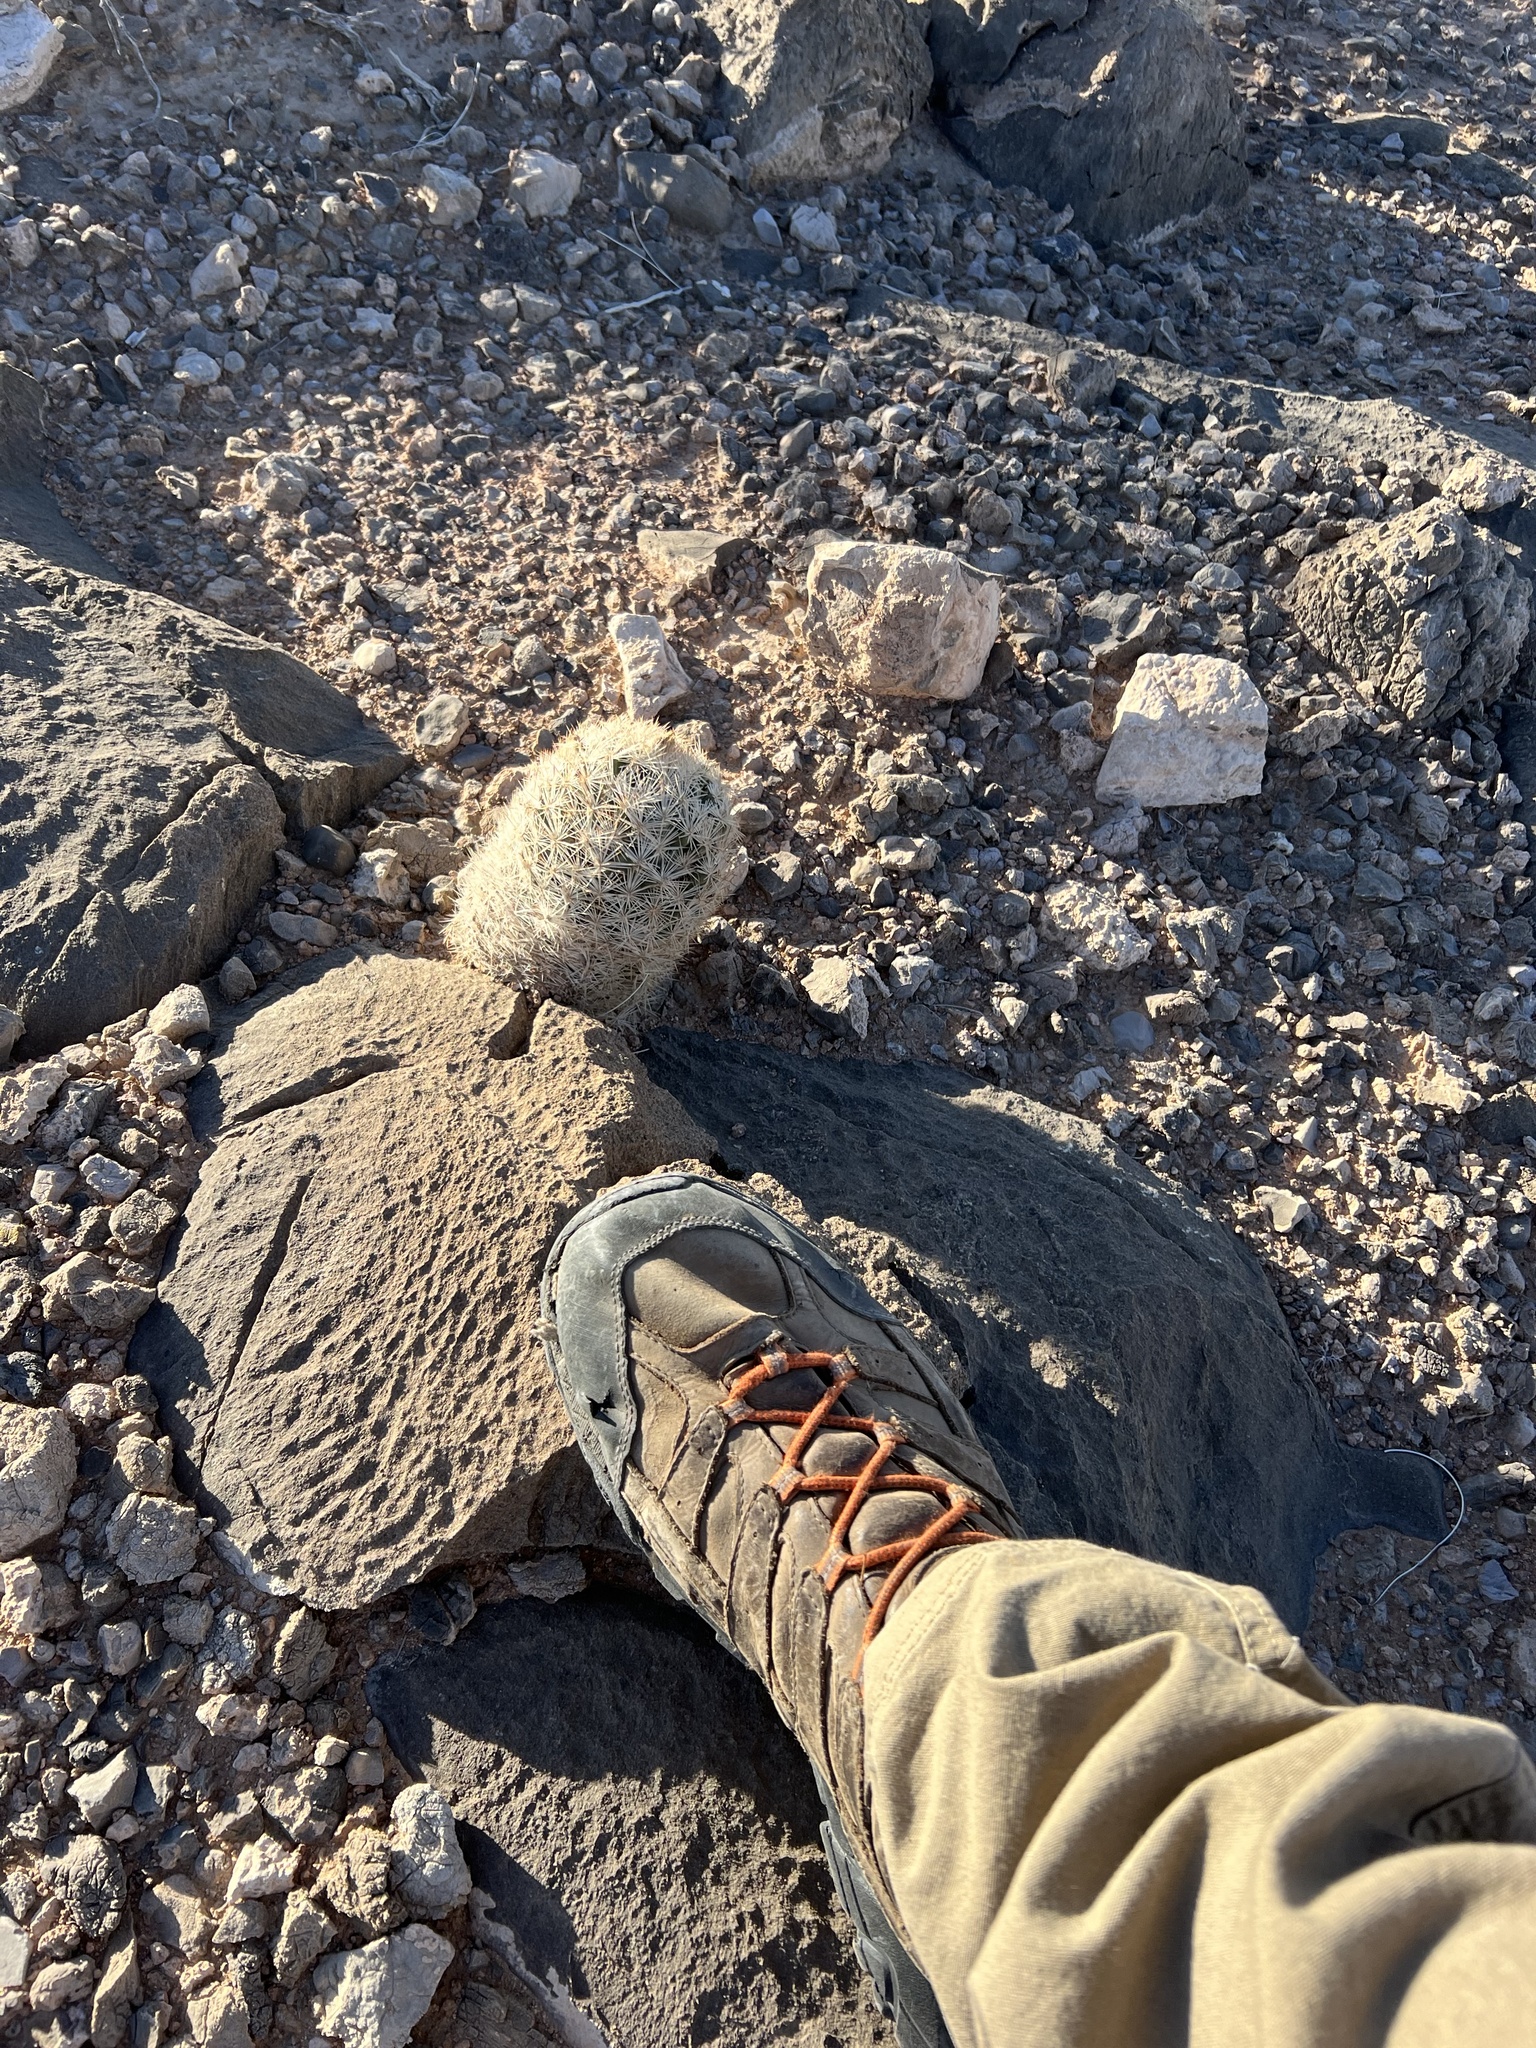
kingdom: Plantae
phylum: Tracheophyta
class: Magnoliopsida
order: Caryophyllales
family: Cactaceae
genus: Pelecyphora
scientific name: Pelecyphora dasyacantha
